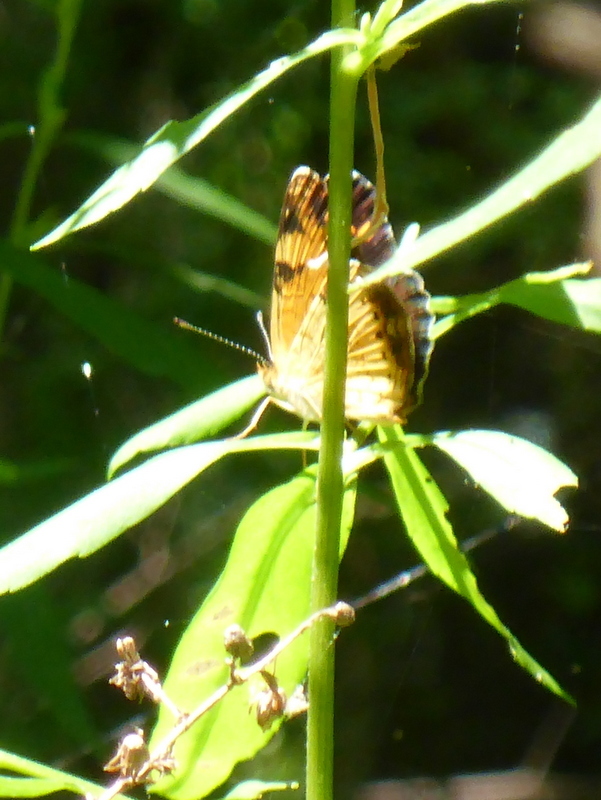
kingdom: Animalia
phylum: Arthropoda
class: Insecta
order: Lepidoptera
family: Nymphalidae
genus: Phyciodes
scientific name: Phyciodes tharos
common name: Pearl crescent
